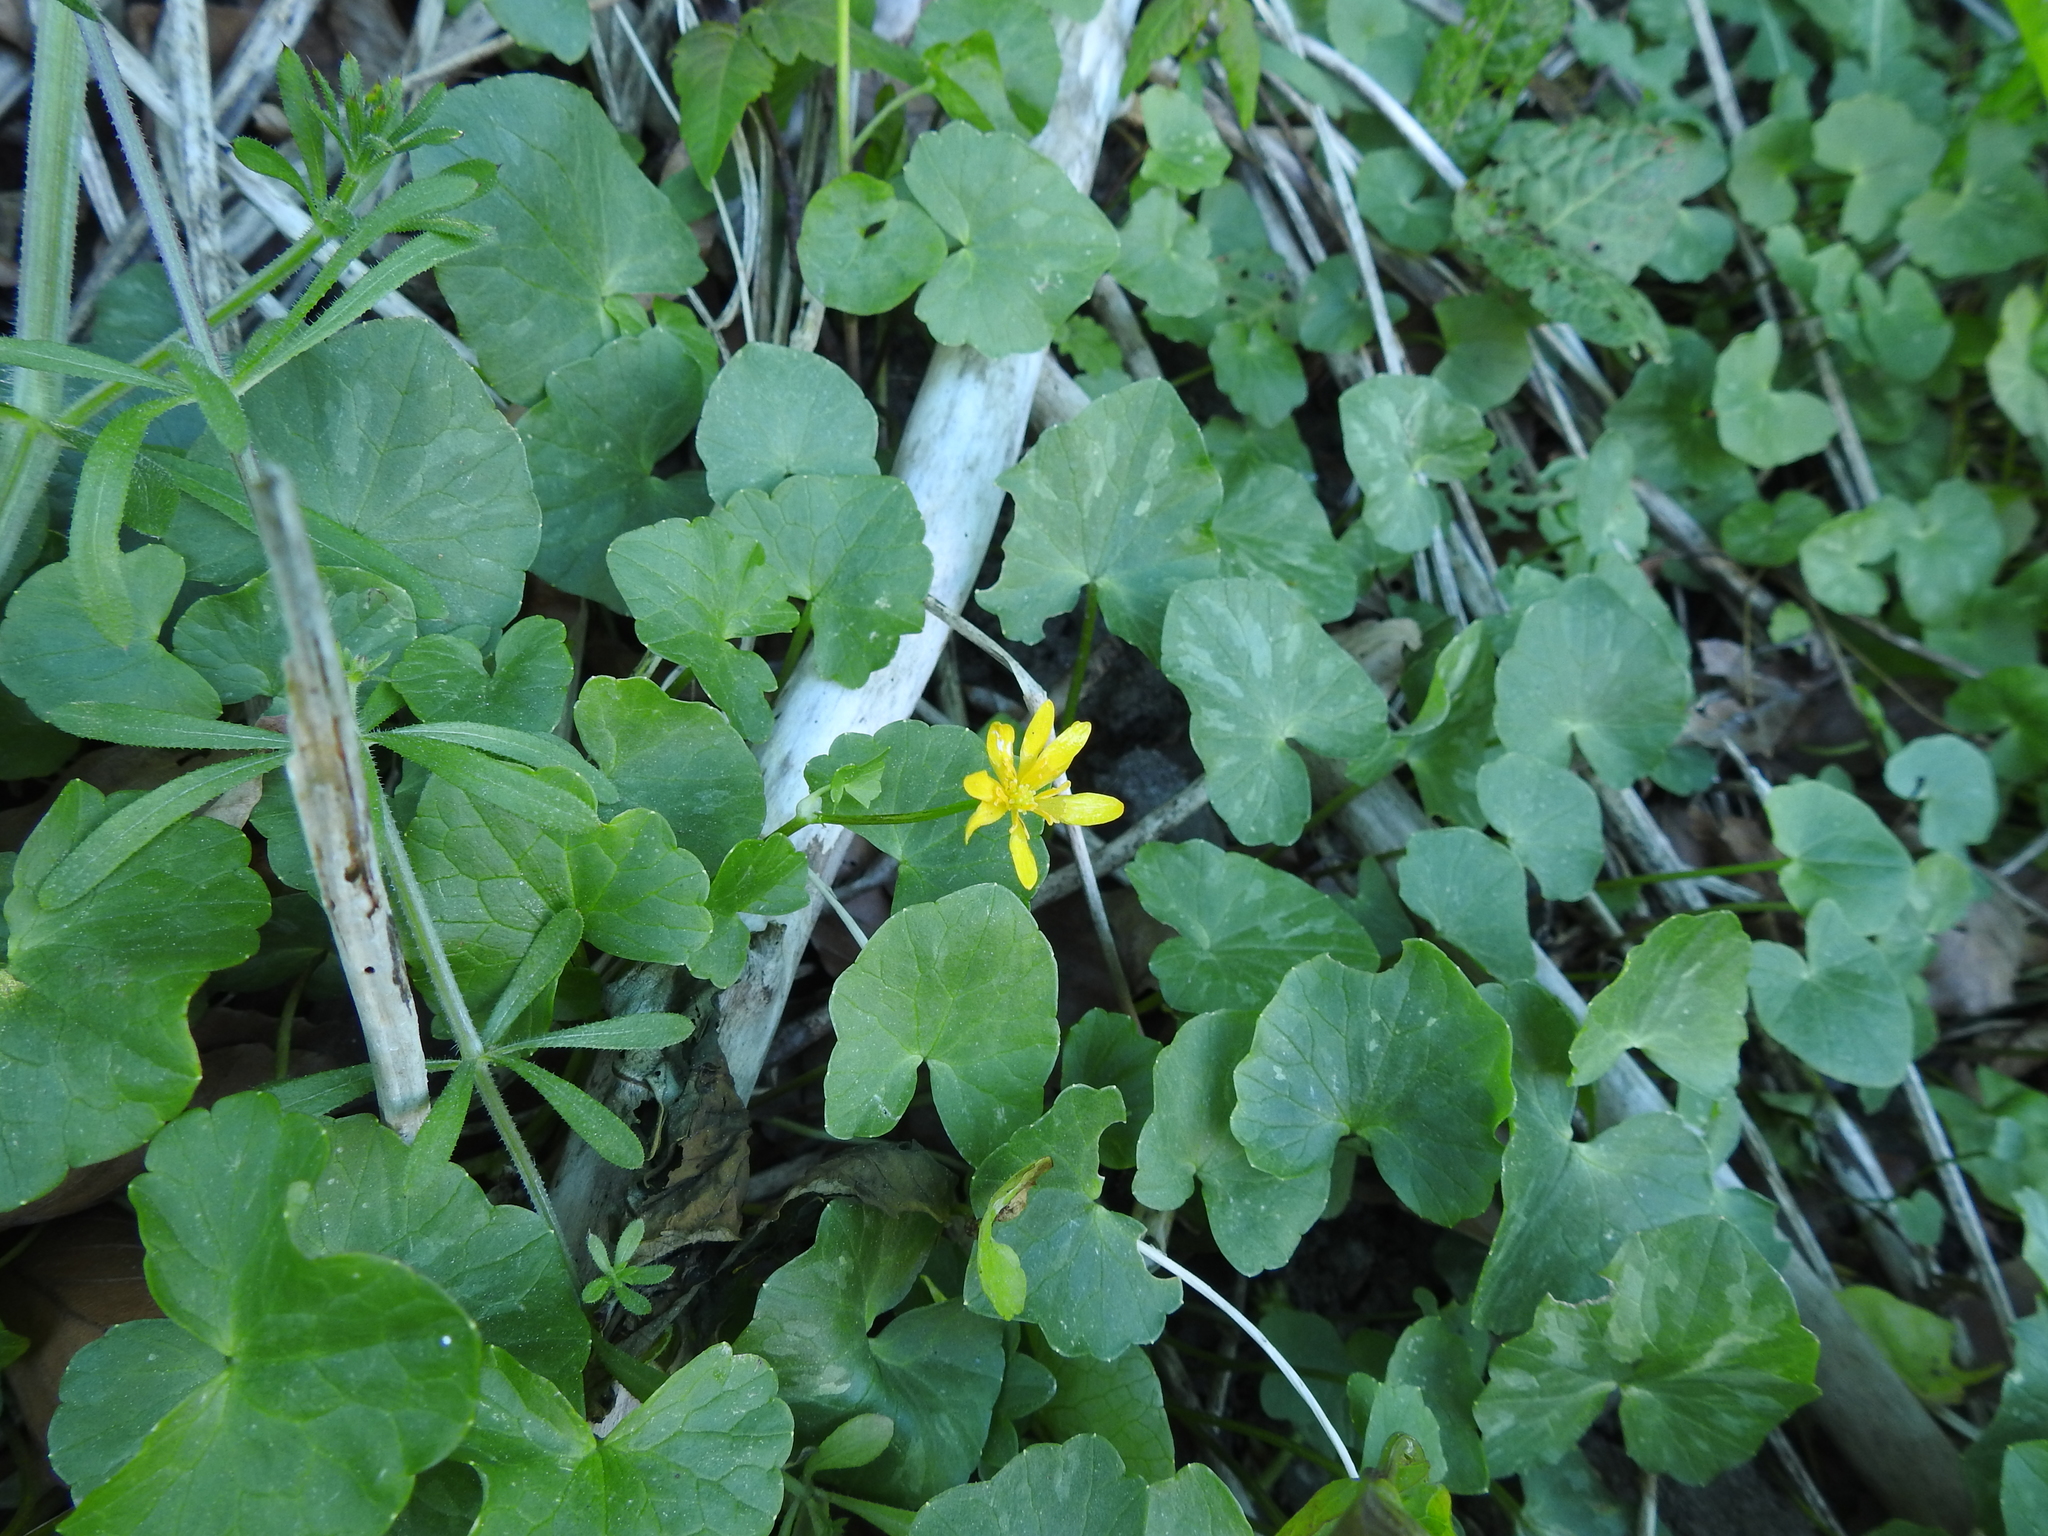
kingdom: Plantae
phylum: Tracheophyta
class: Magnoliopsida
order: Ranunculales
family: Ranunculaceae
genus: Ficaria
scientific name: Ficaria verna
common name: Lesser celandine
